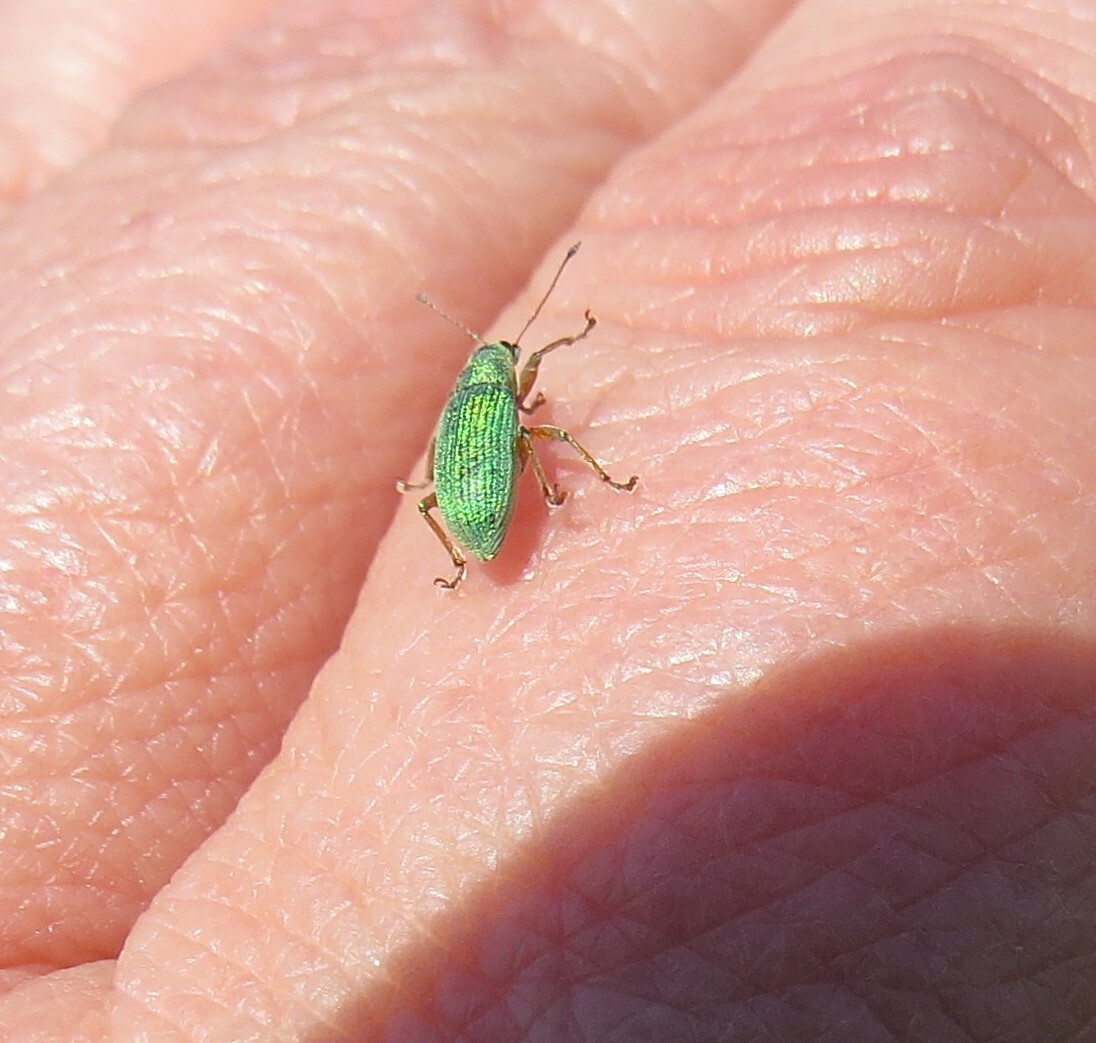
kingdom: Animalia
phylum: Arthropoda
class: Insecta
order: Coleoptera
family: Curculionidae
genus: Polydrusus
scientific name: Polydrusus formosus
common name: Weevil
